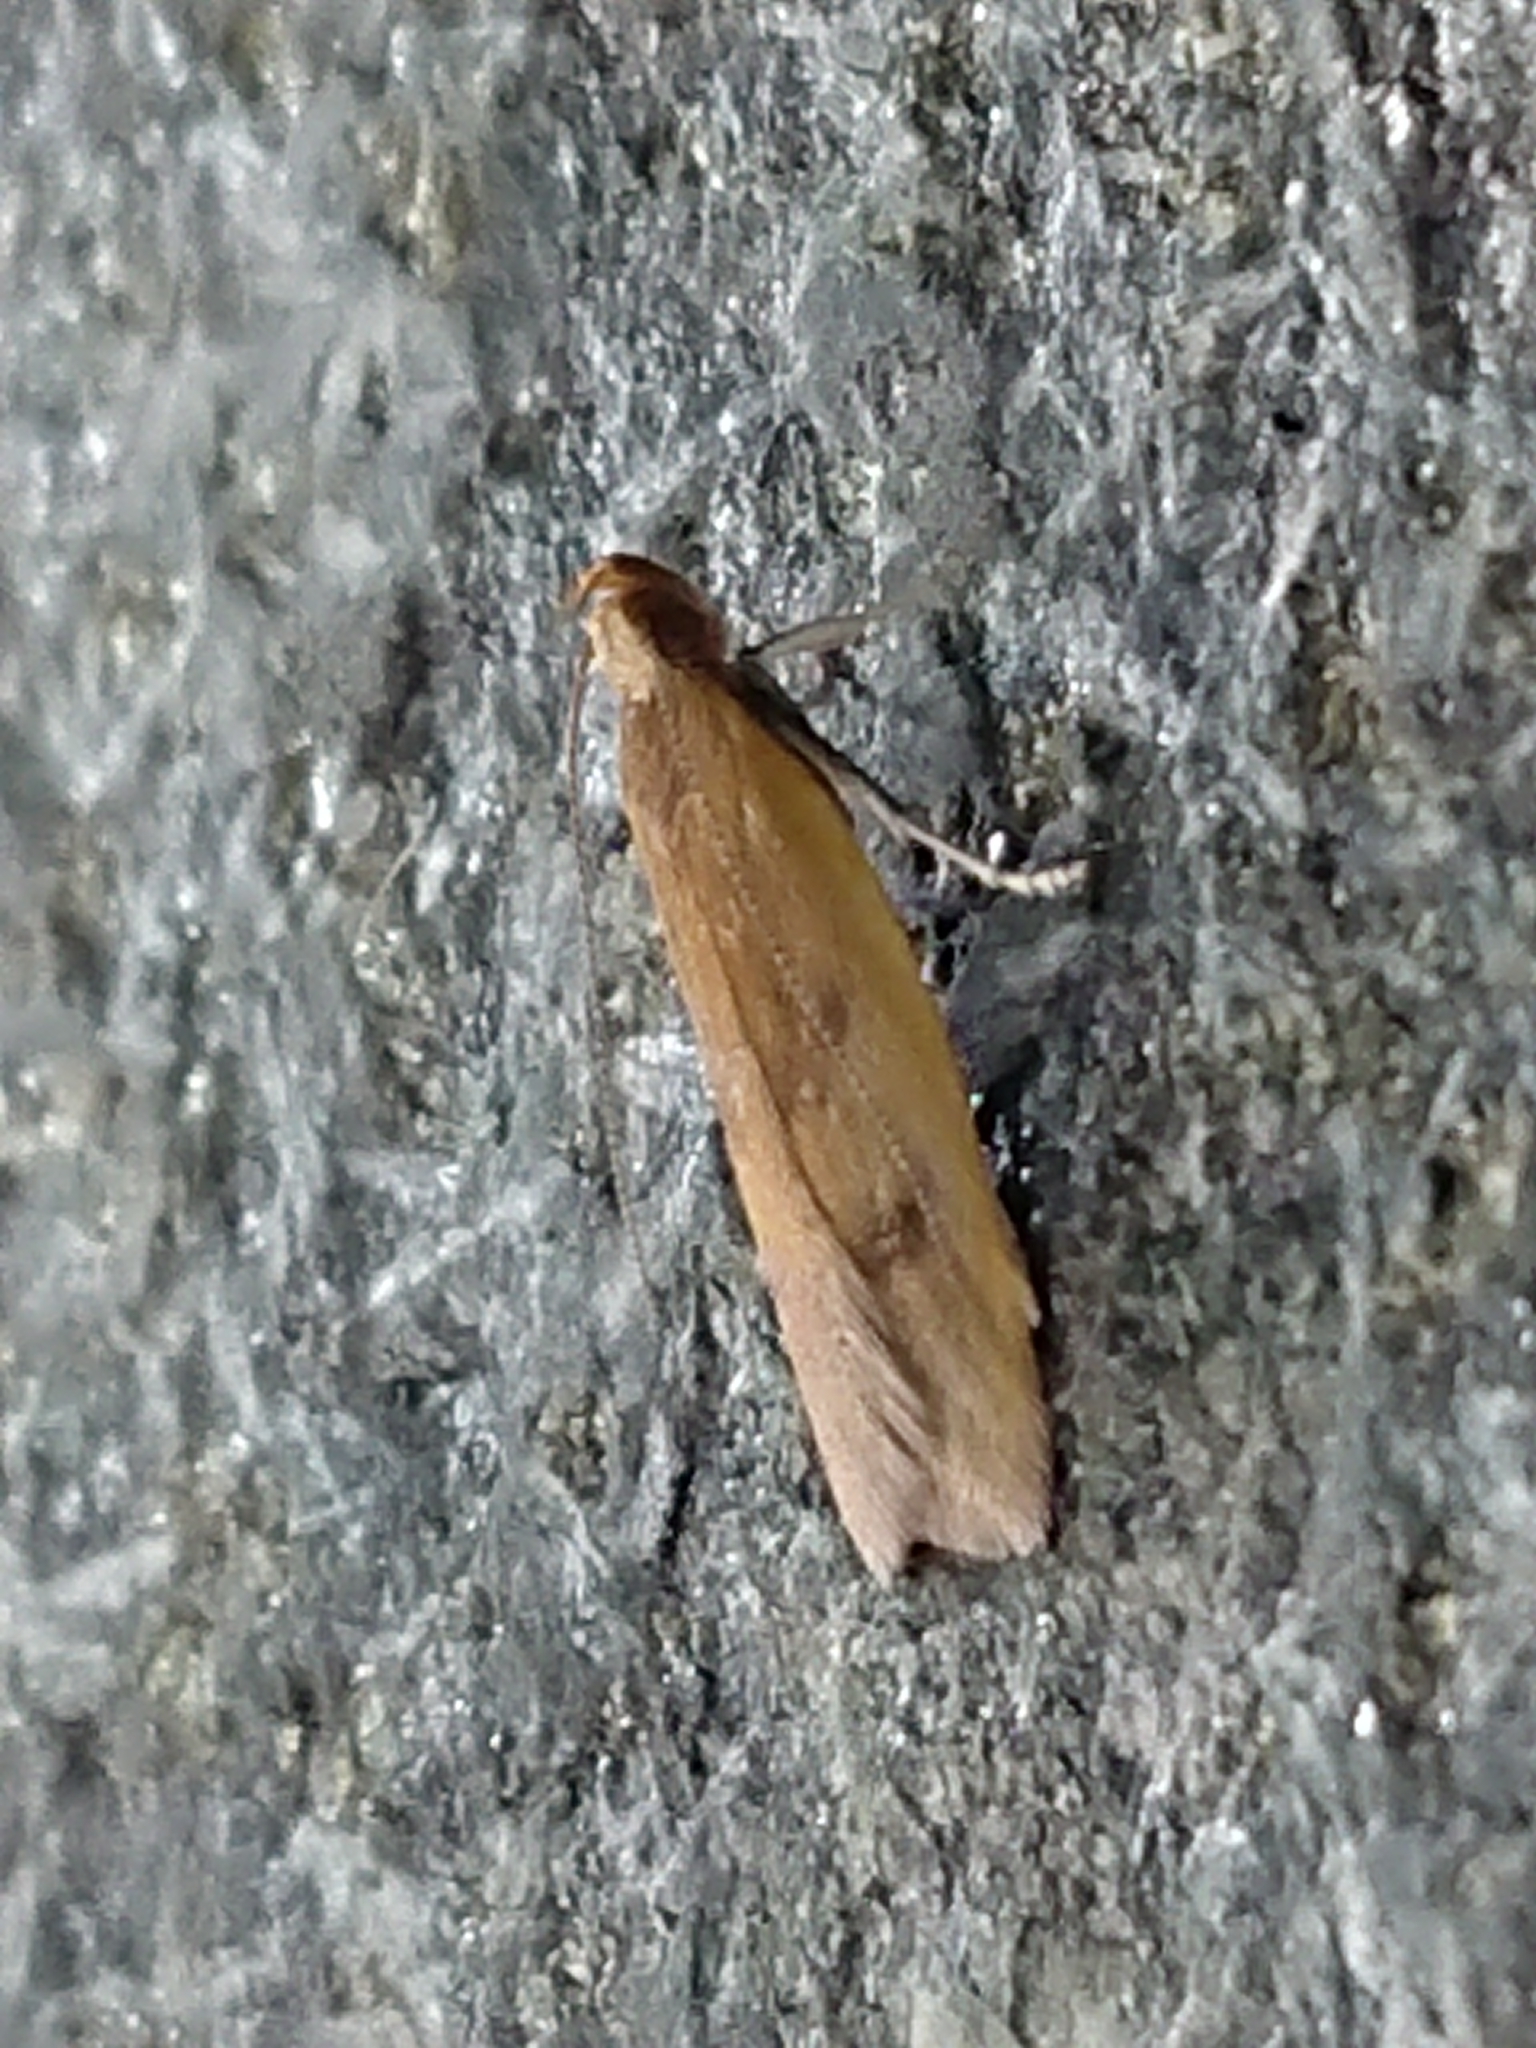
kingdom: Animalia
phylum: Arthropoda
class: Insecta
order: Lepidoptera
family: Oecophoridae
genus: Gymnobathra
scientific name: Gymnobathra sarcoxantha
